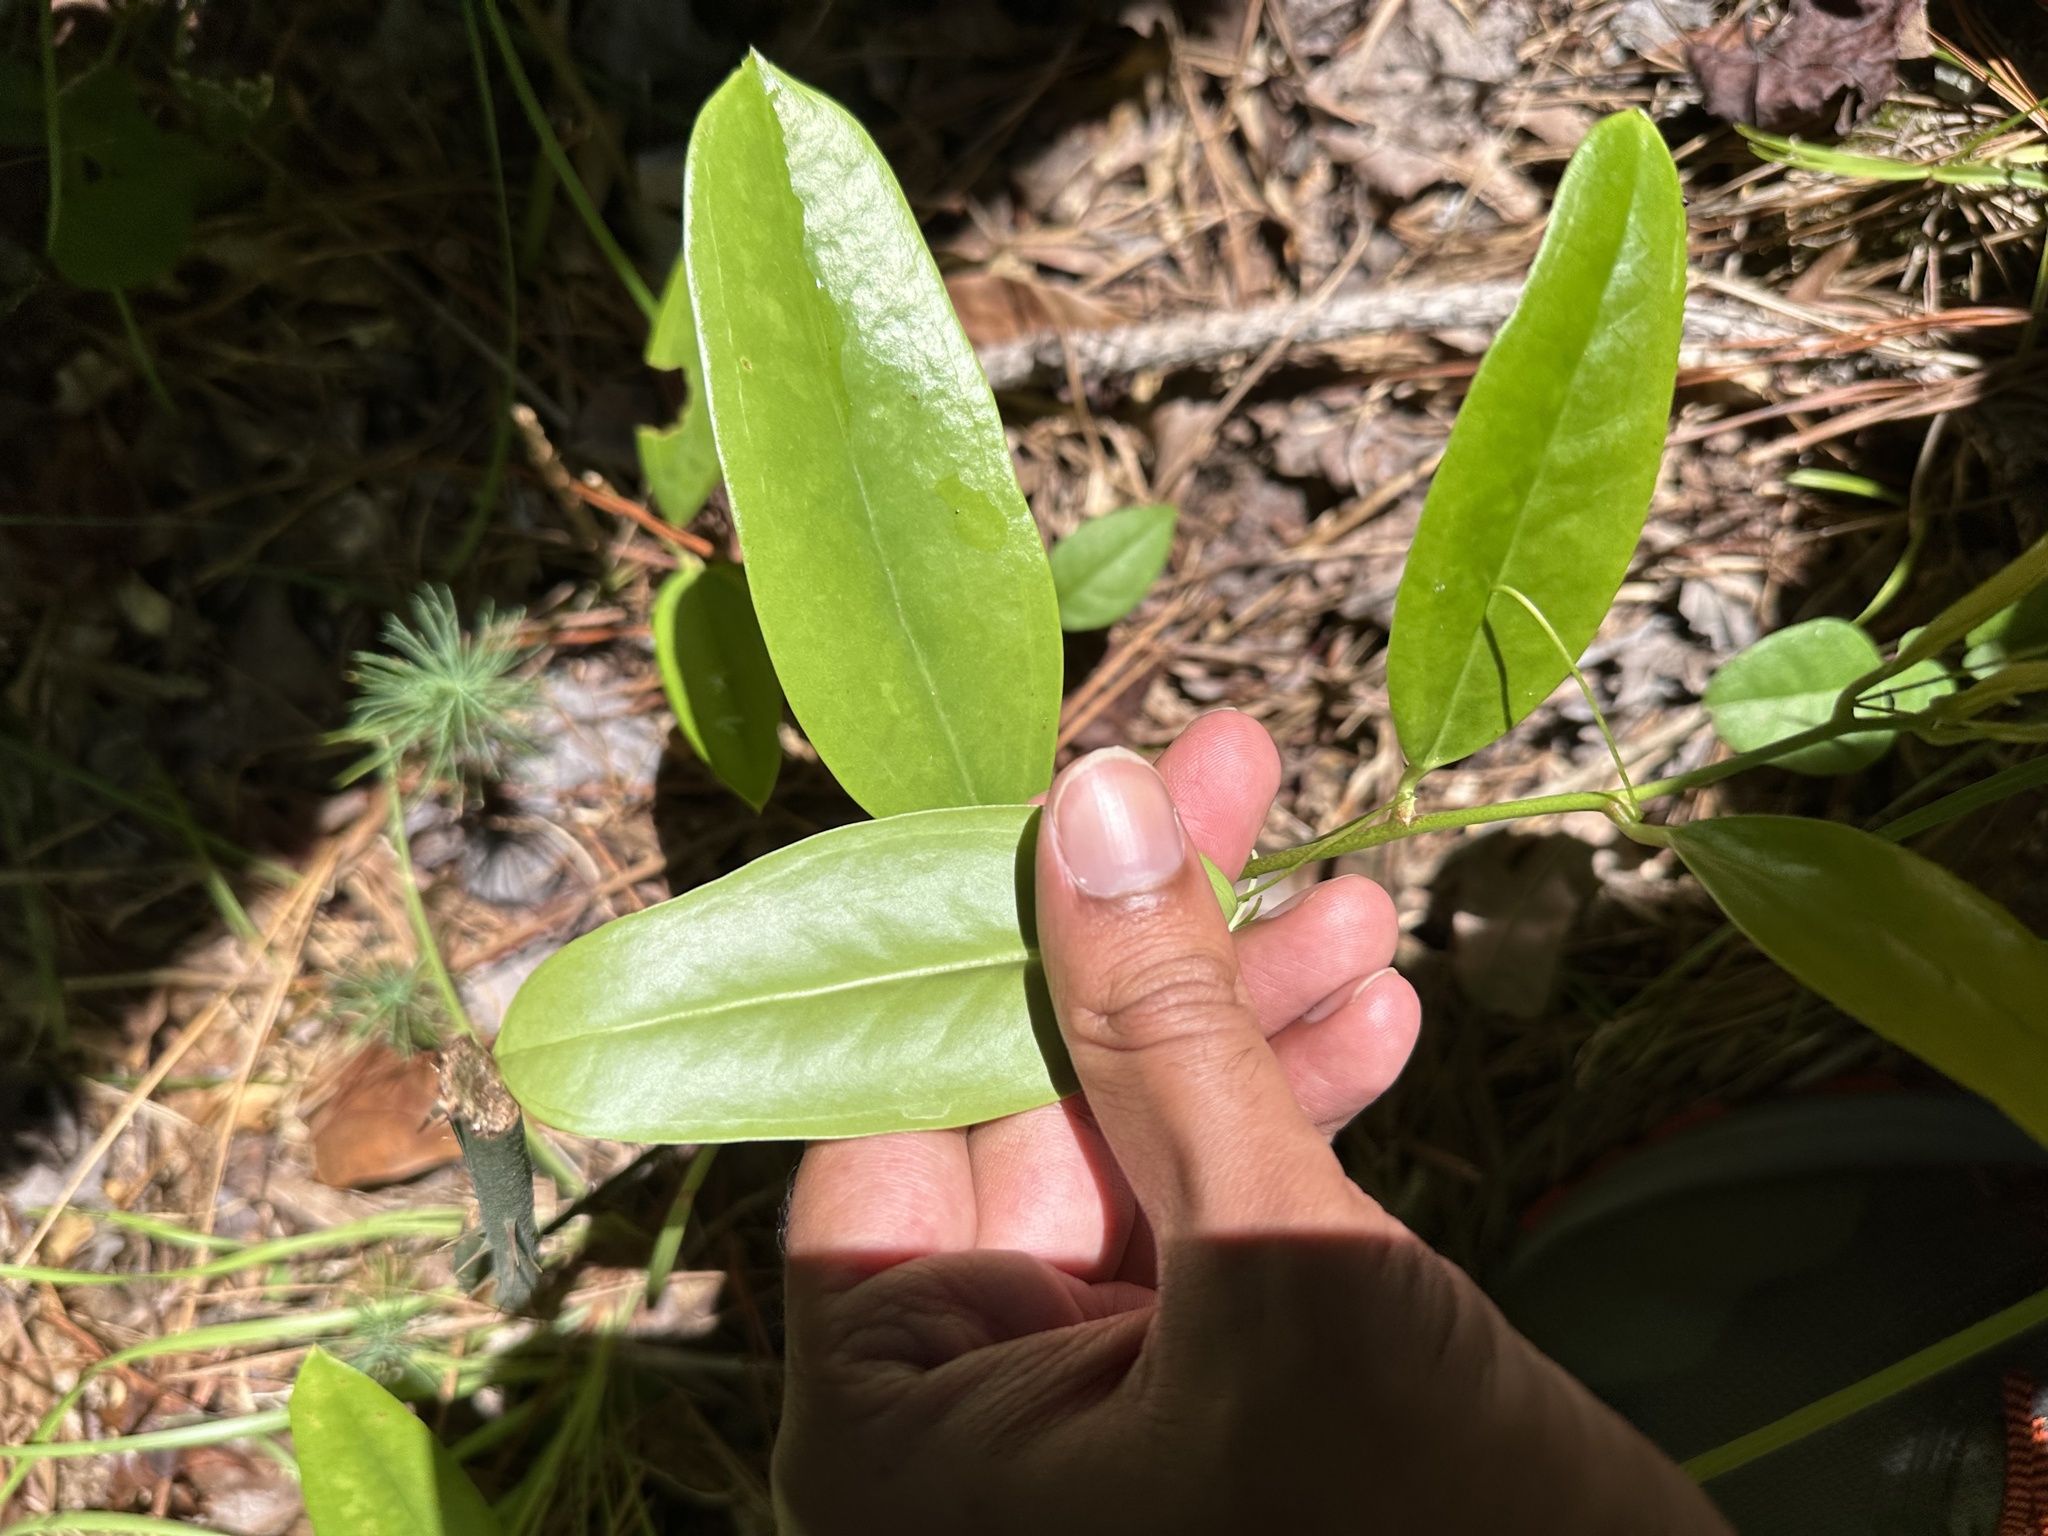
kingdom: Plantae
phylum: Tracheophyta
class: Liliopsida
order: Liliales
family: Smilacaceae
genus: Smilax
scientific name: Smilax laurifolia
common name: Bamboovine
